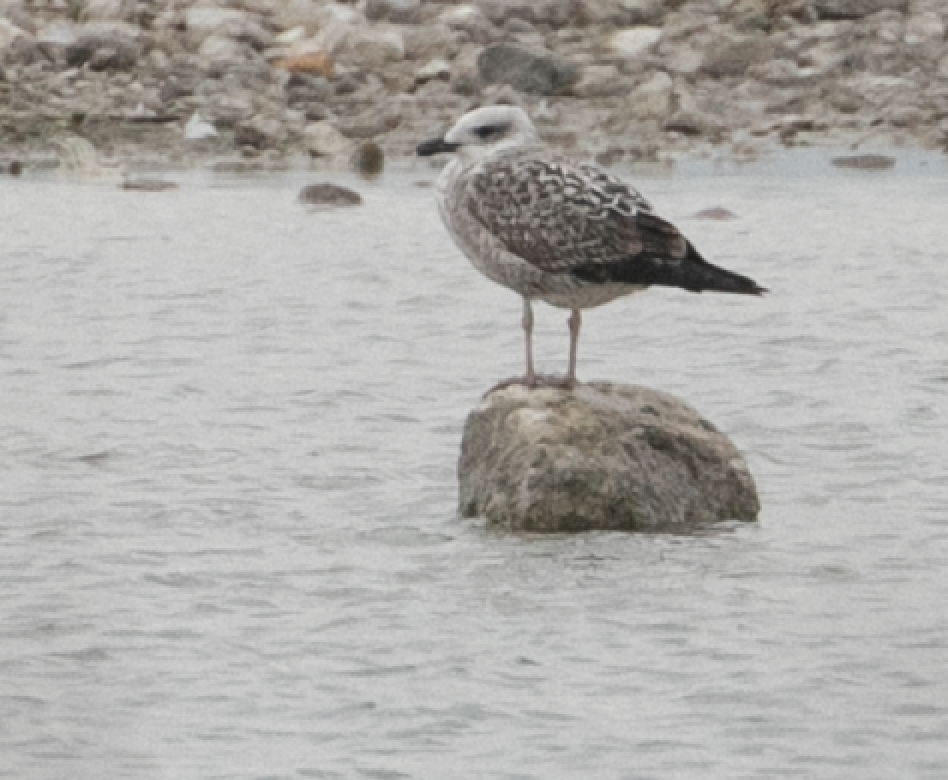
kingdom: Animalia
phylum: Chordata
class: Aves
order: Charadriiformes
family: Laridae
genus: Larus
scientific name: Larus michahellis
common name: Yellow-legged gull
